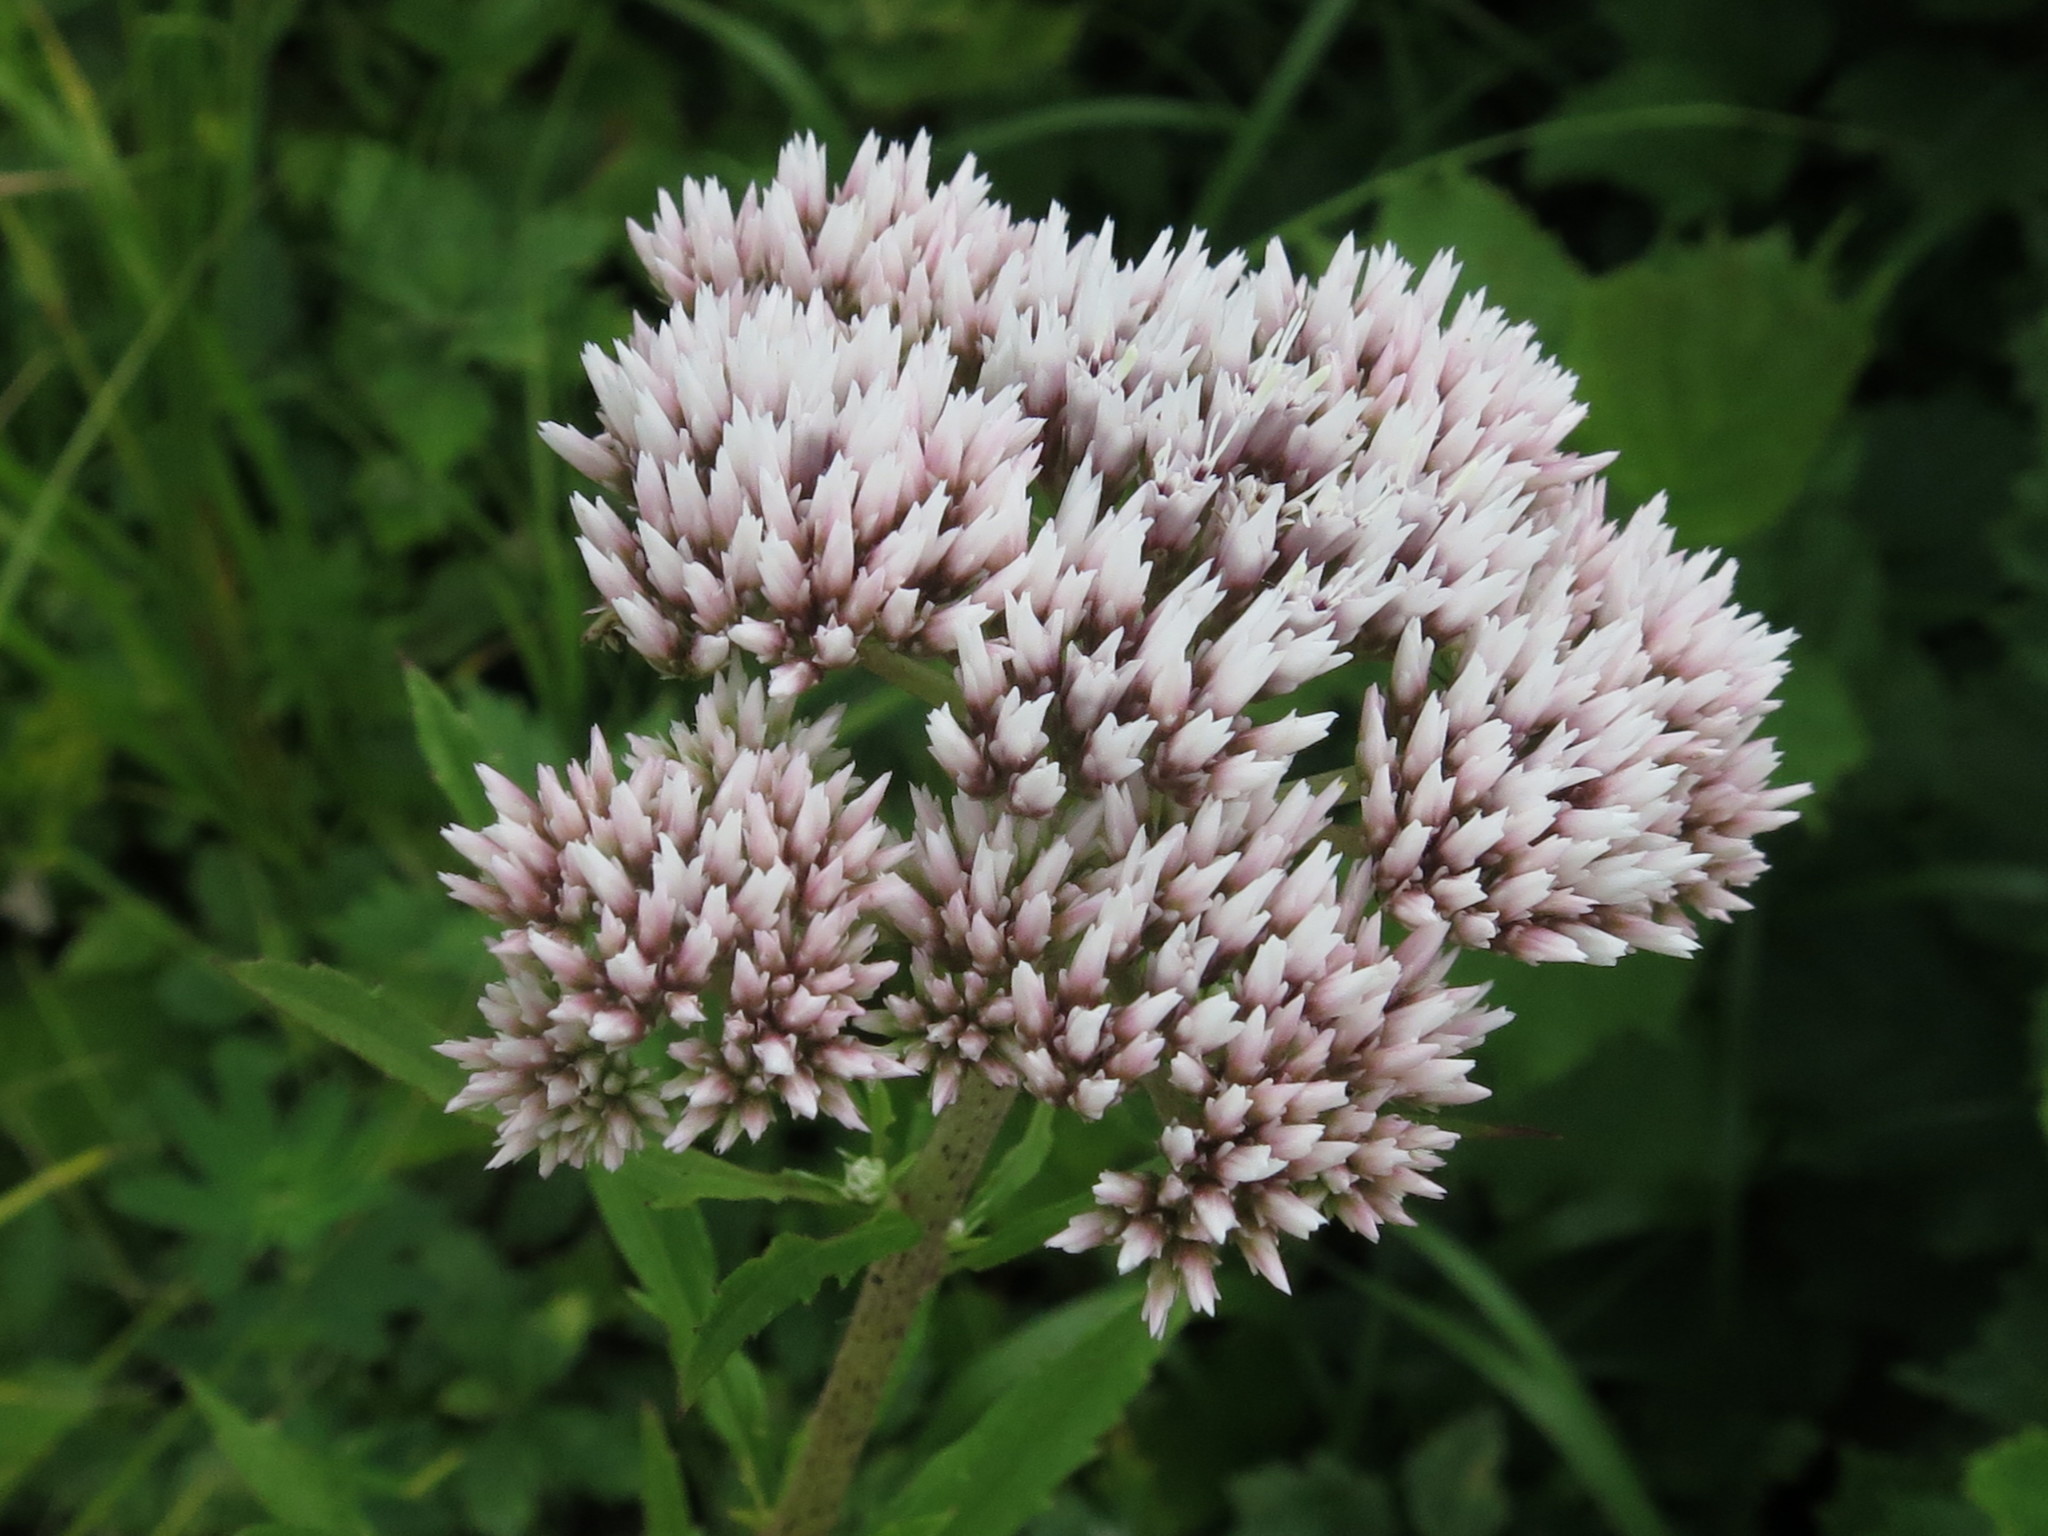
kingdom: Plantae
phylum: Tracheophyta
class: Magnoliopsida
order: Asterales
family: Asteraceae
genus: Eupatorium
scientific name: Eupatorium lindleyanum
